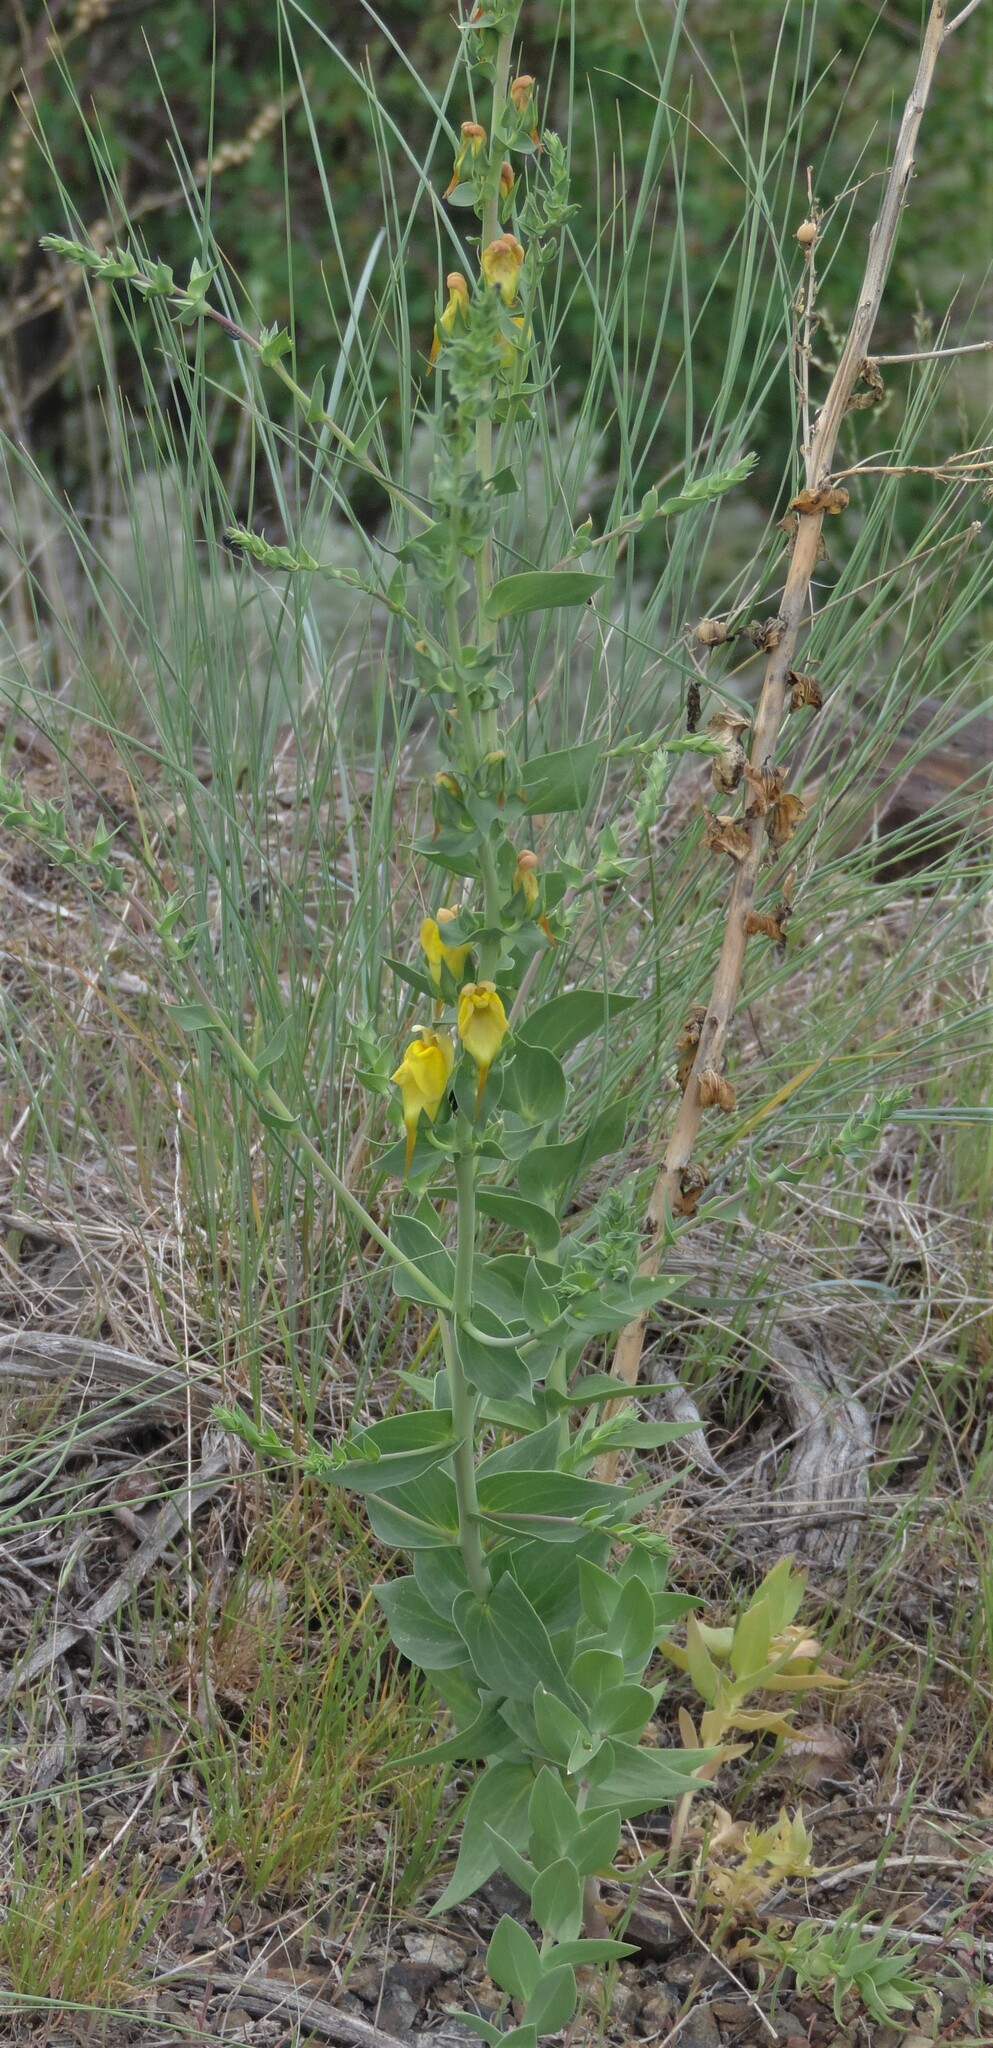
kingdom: Plantae
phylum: Tracheophyta
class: Magnoliopsida
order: Lamiales
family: Plantaginaceae
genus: Linaria
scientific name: Linaria dalmatica
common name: Dalmatian toadflax
